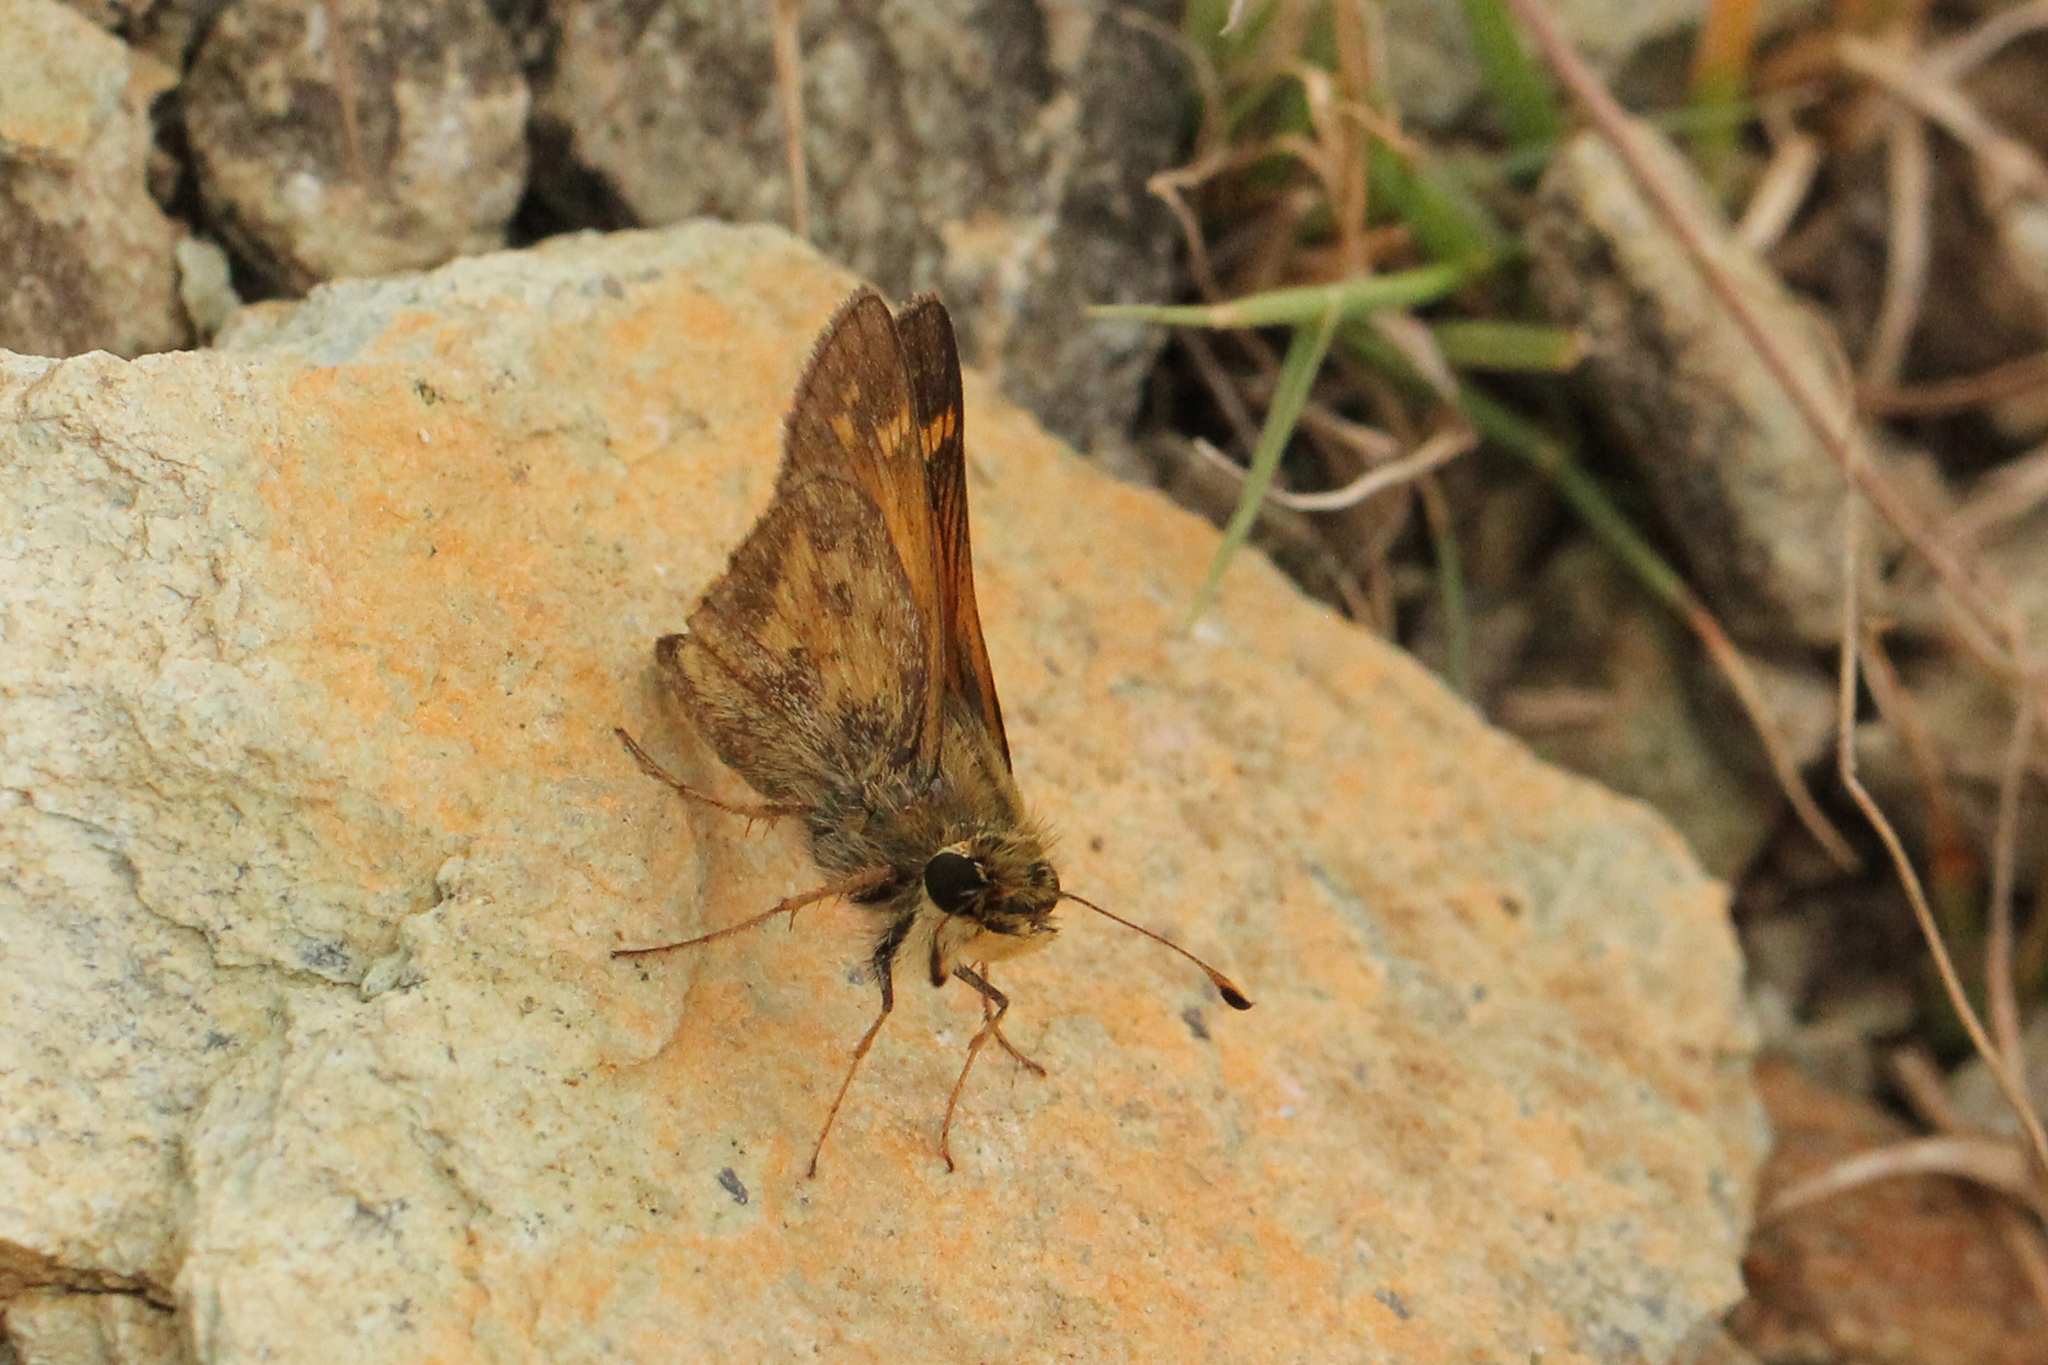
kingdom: Animalia
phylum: Arthropoda
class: Insecta
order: Lepidoptera
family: Hesperiidae
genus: Atalopedes
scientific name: Atalopedes
